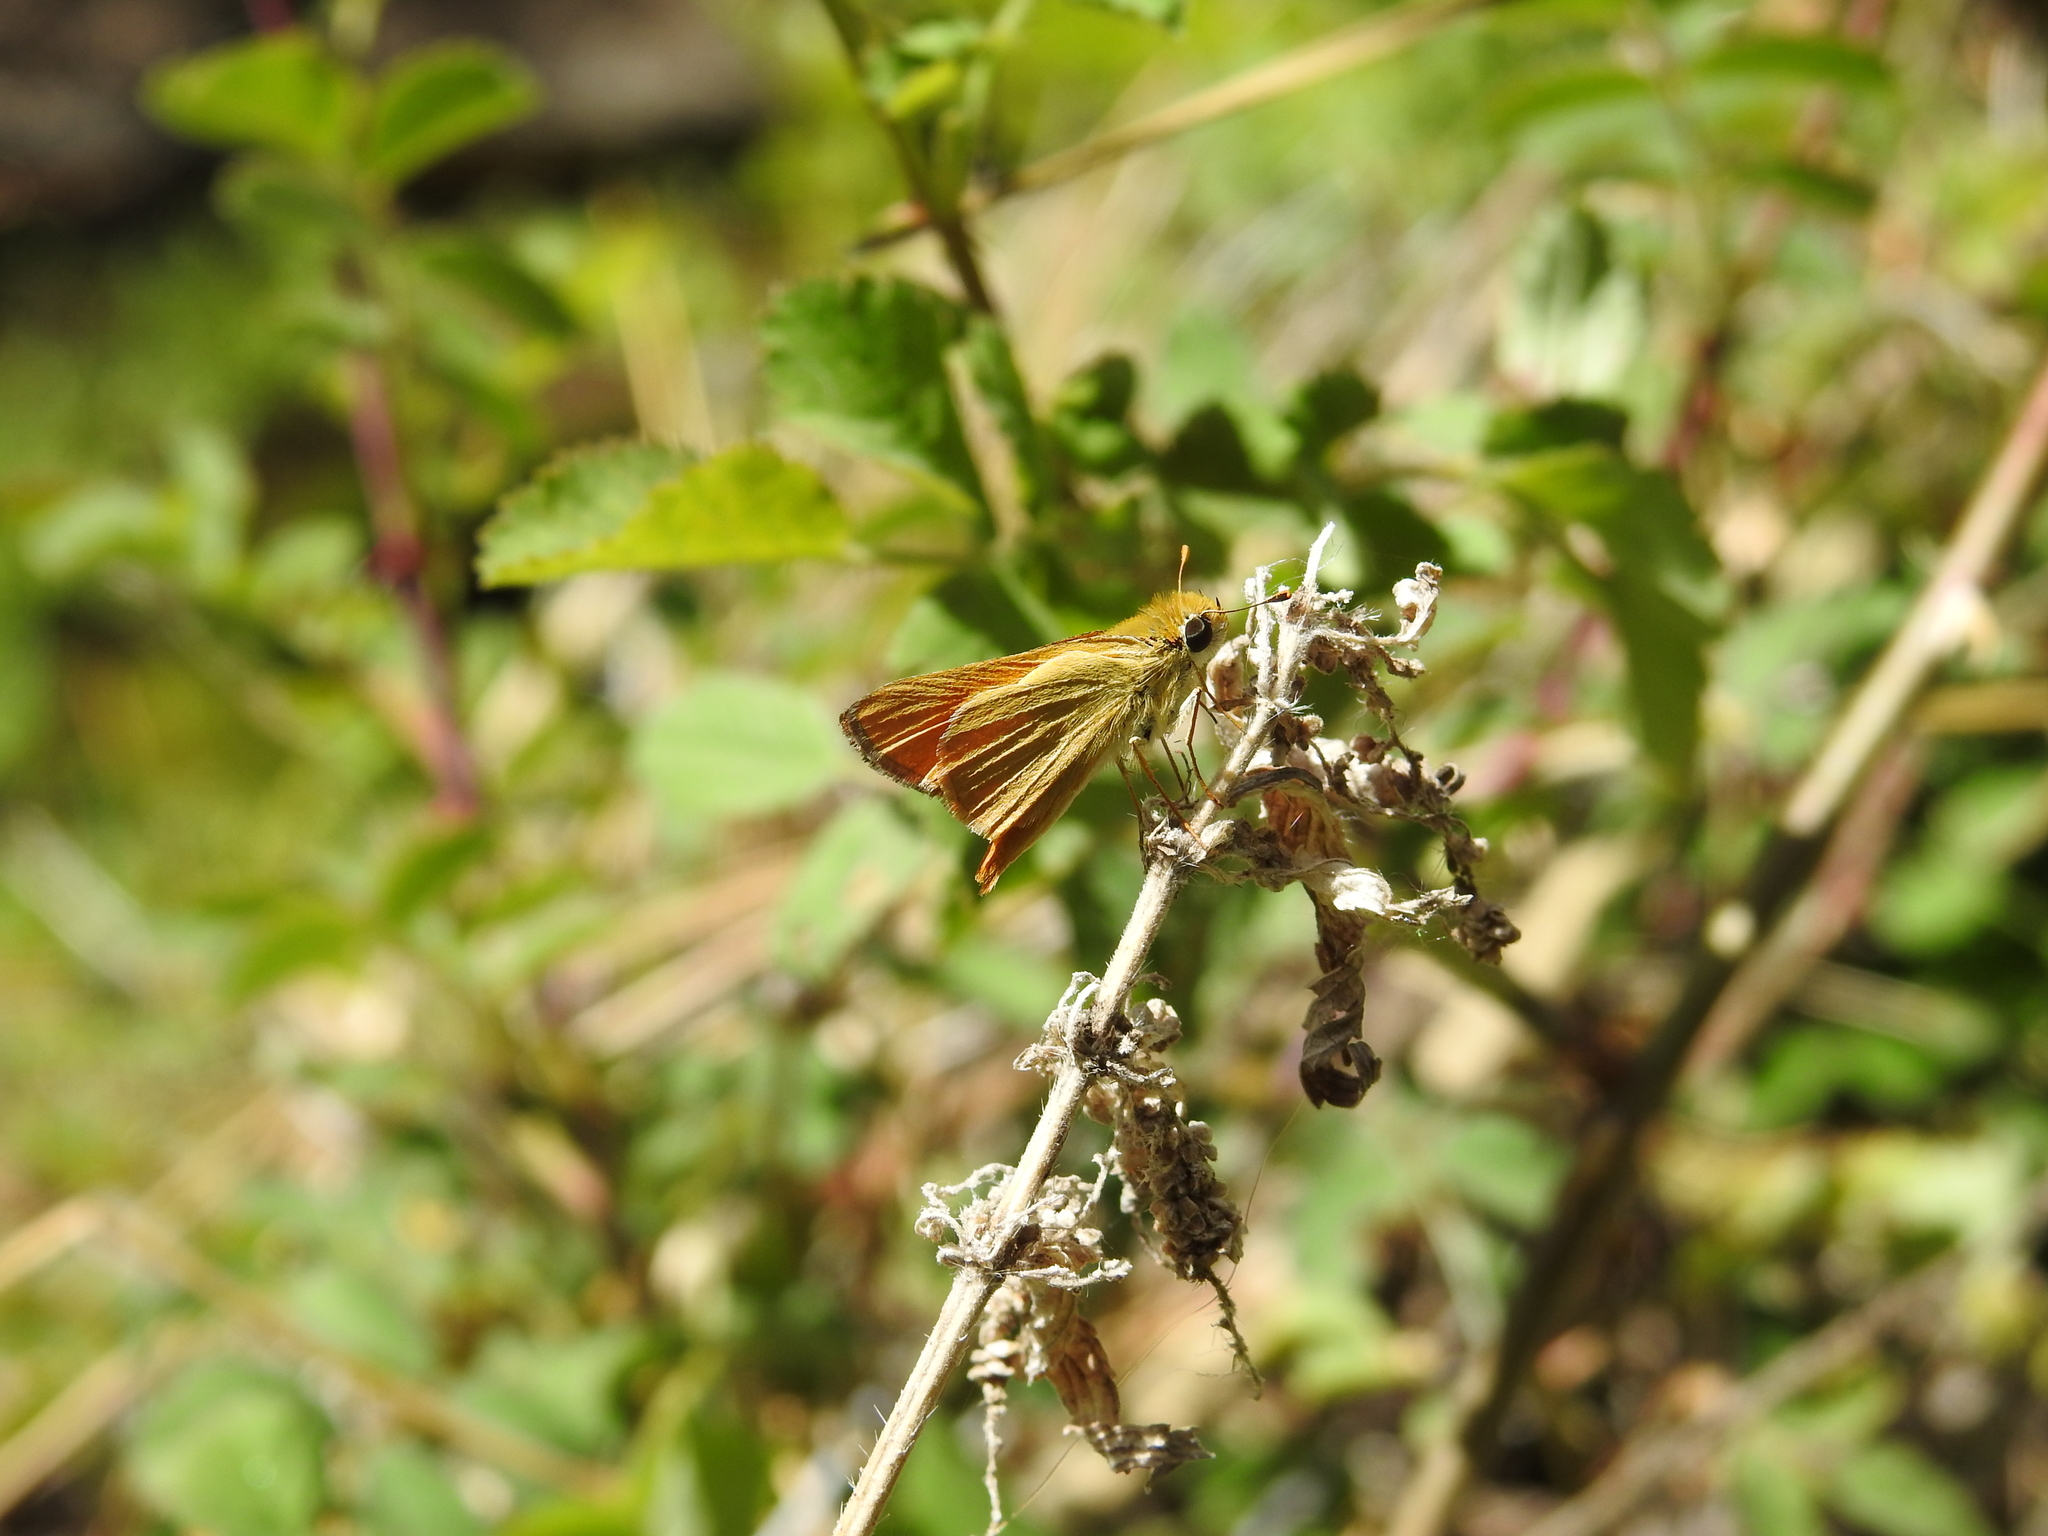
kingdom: Animalia
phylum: Arthropoda
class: Insecta
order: Lepidoptera
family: Hesperiidae
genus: Copaeodes
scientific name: Copaeodes aurantiaca
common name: Orange skipperling
